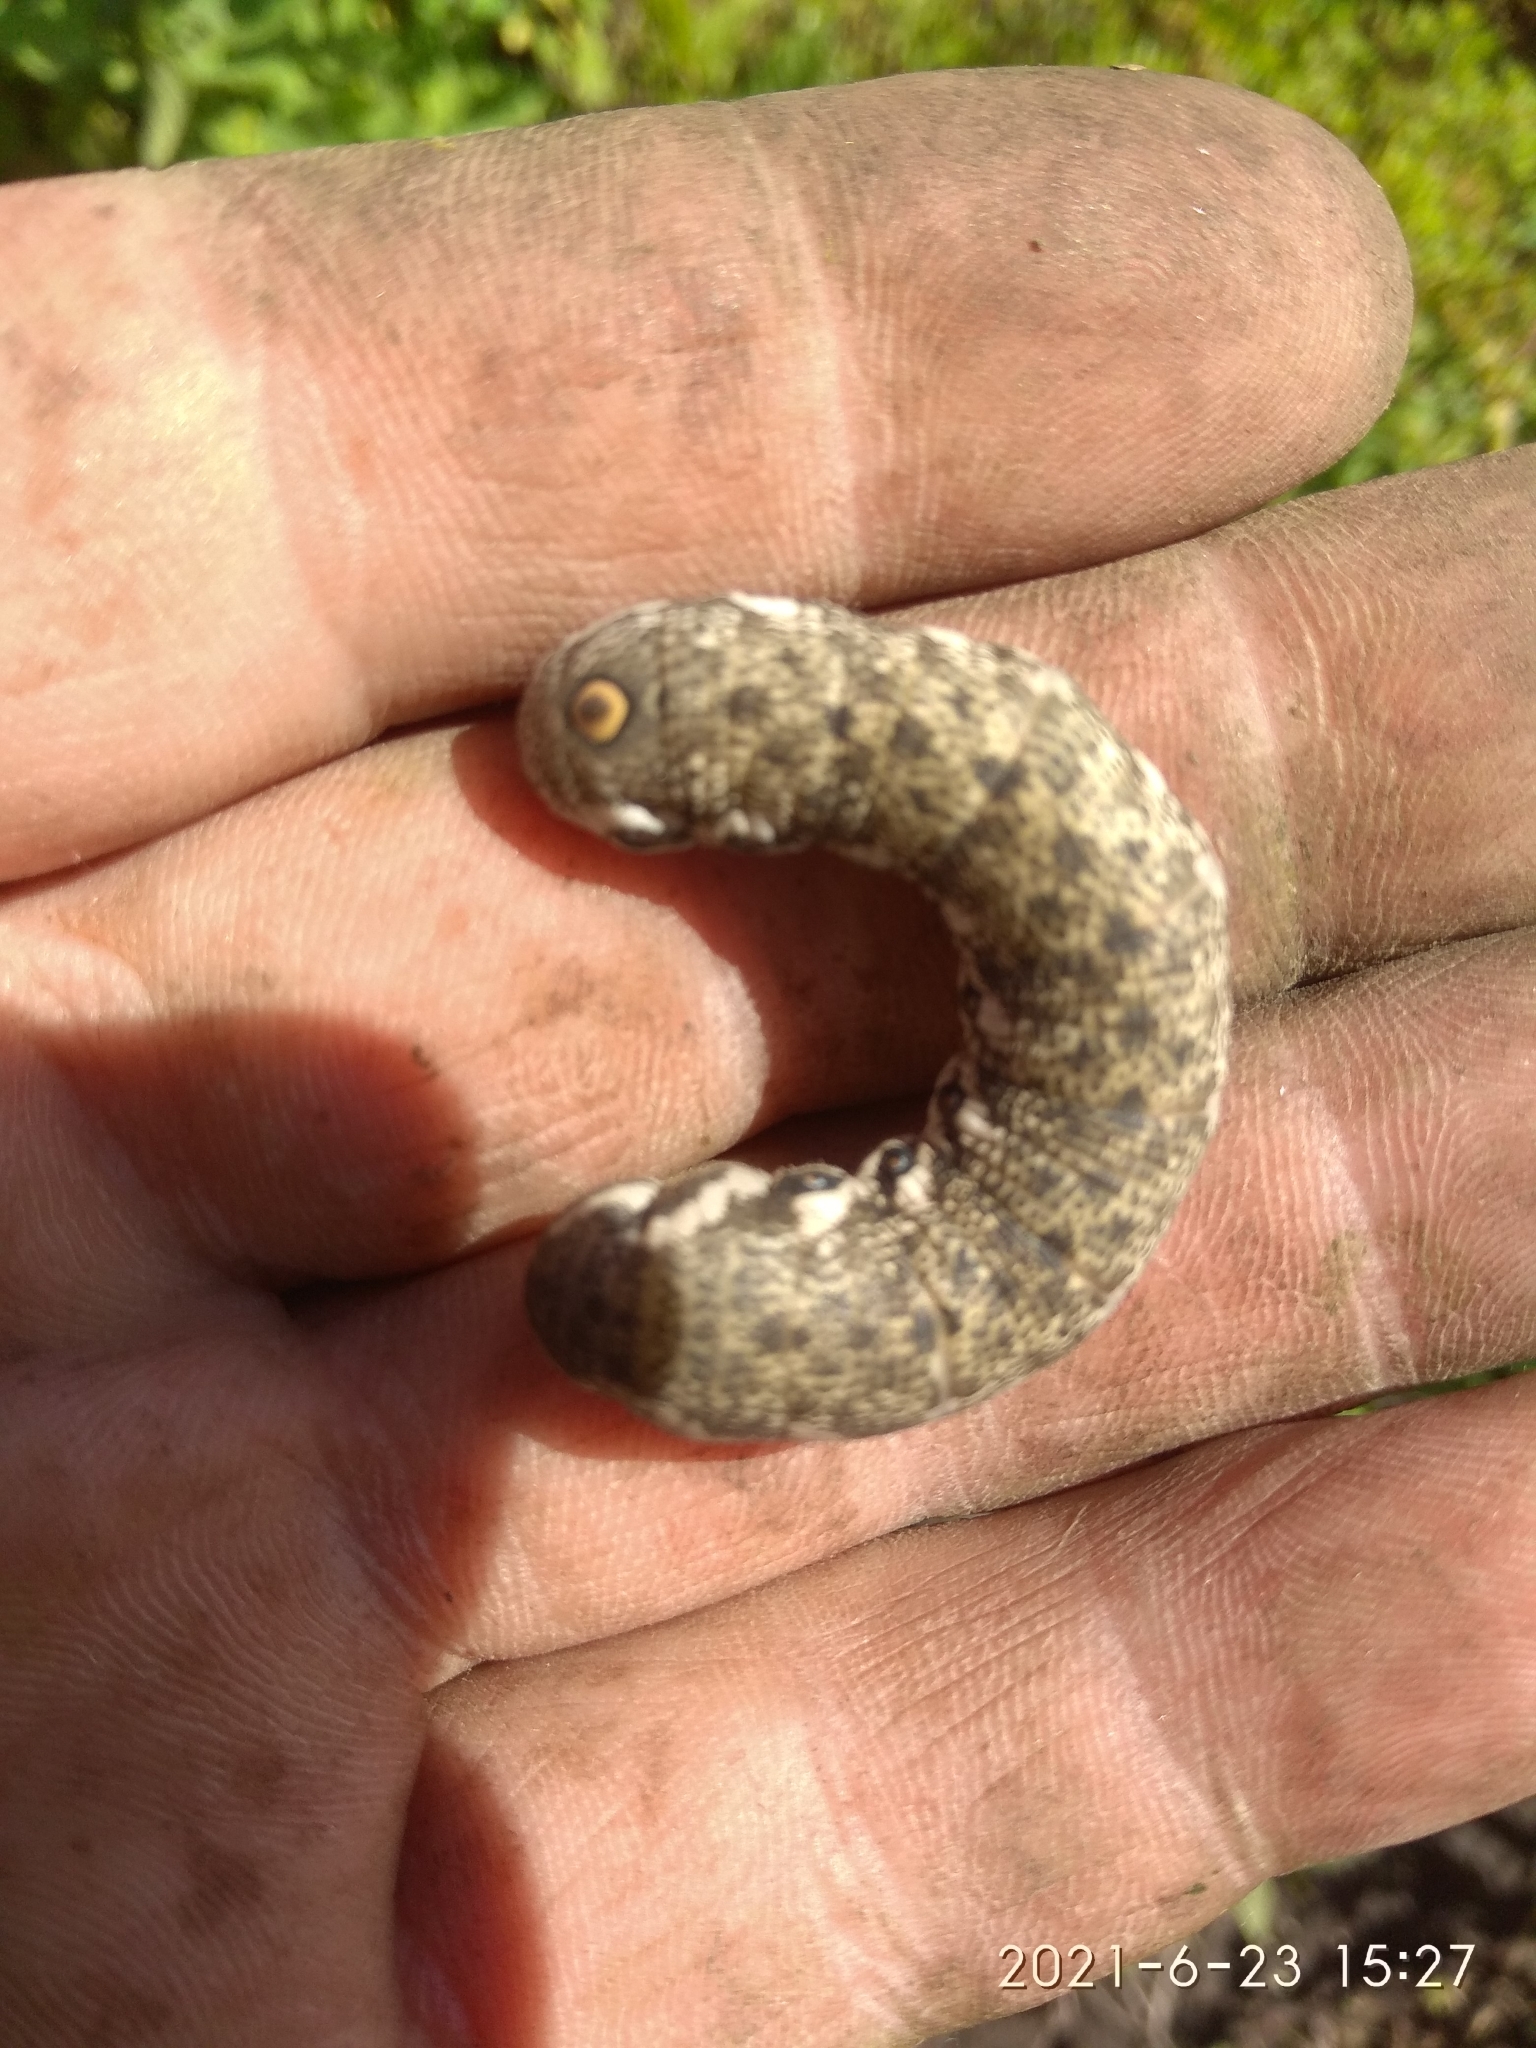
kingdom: Animalia
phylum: Arthropoda
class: Insecta
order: Lepidoptera
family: Sphingidae
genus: Proserpinus
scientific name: Proserpinus proserpina
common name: Willowherb hawkmoth
